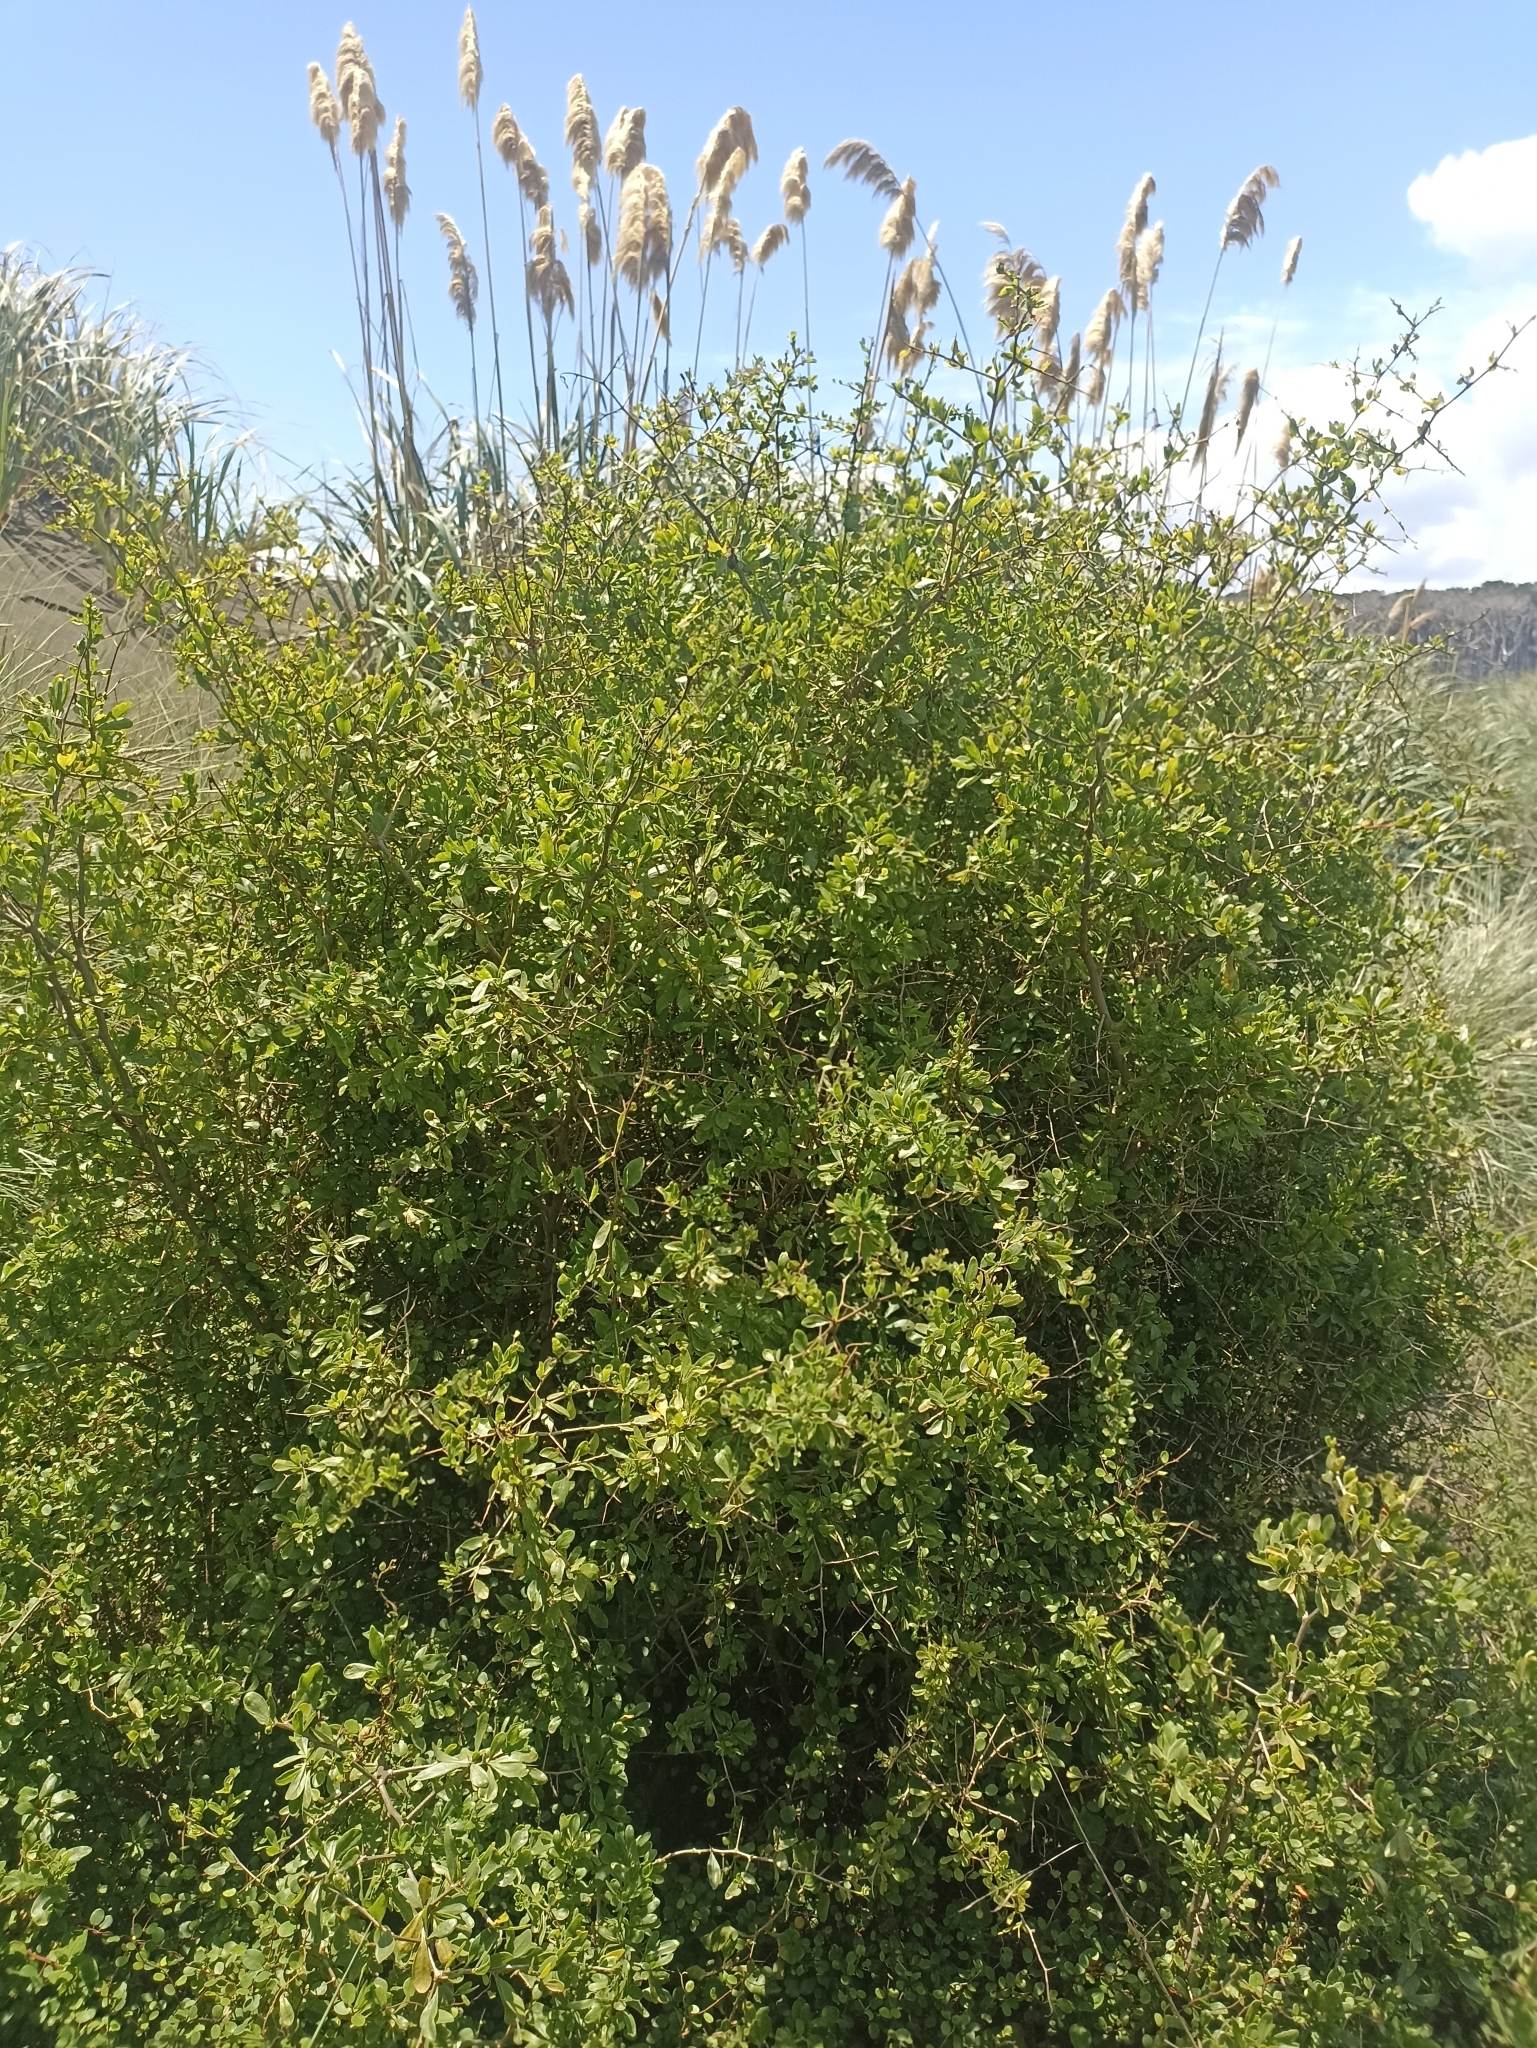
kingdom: Plantae
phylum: Tracheophyta
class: Magnoliopsida
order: Solanales
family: Solanaceae
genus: Lycium
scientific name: Lycium ferocissimum
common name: African boxthorn
